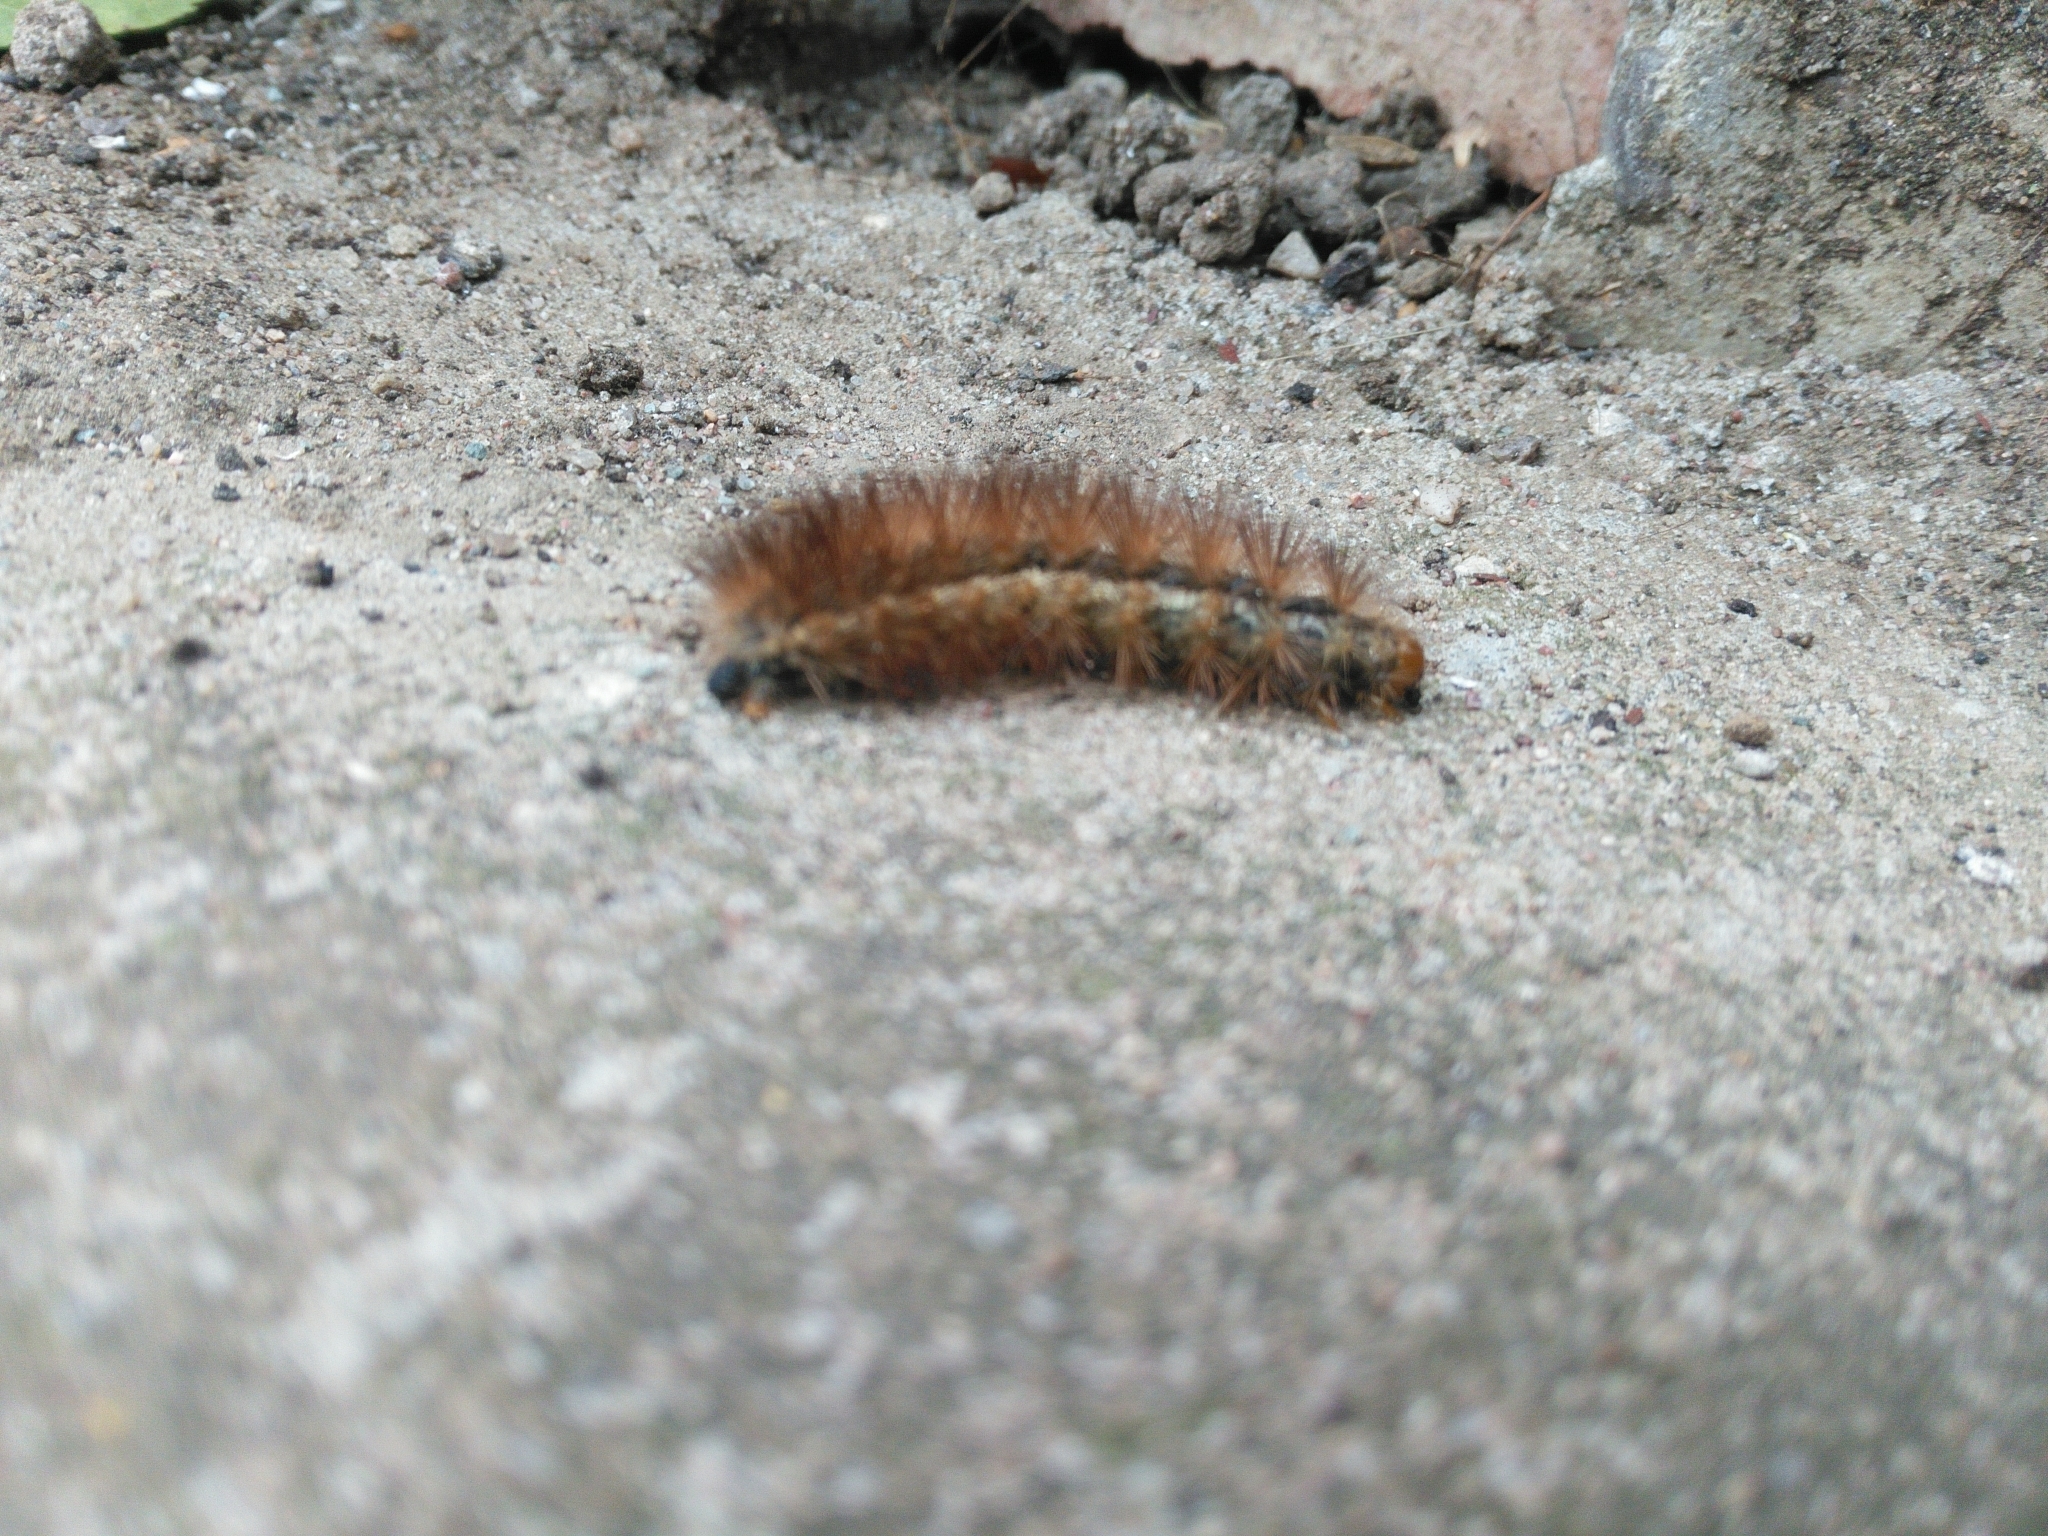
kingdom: Animalia
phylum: Arthropoda
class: Insecta
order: Lepidoptera
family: Erebidae
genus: Spilarctia
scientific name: Spilarctia lutea
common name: Buff ermine
